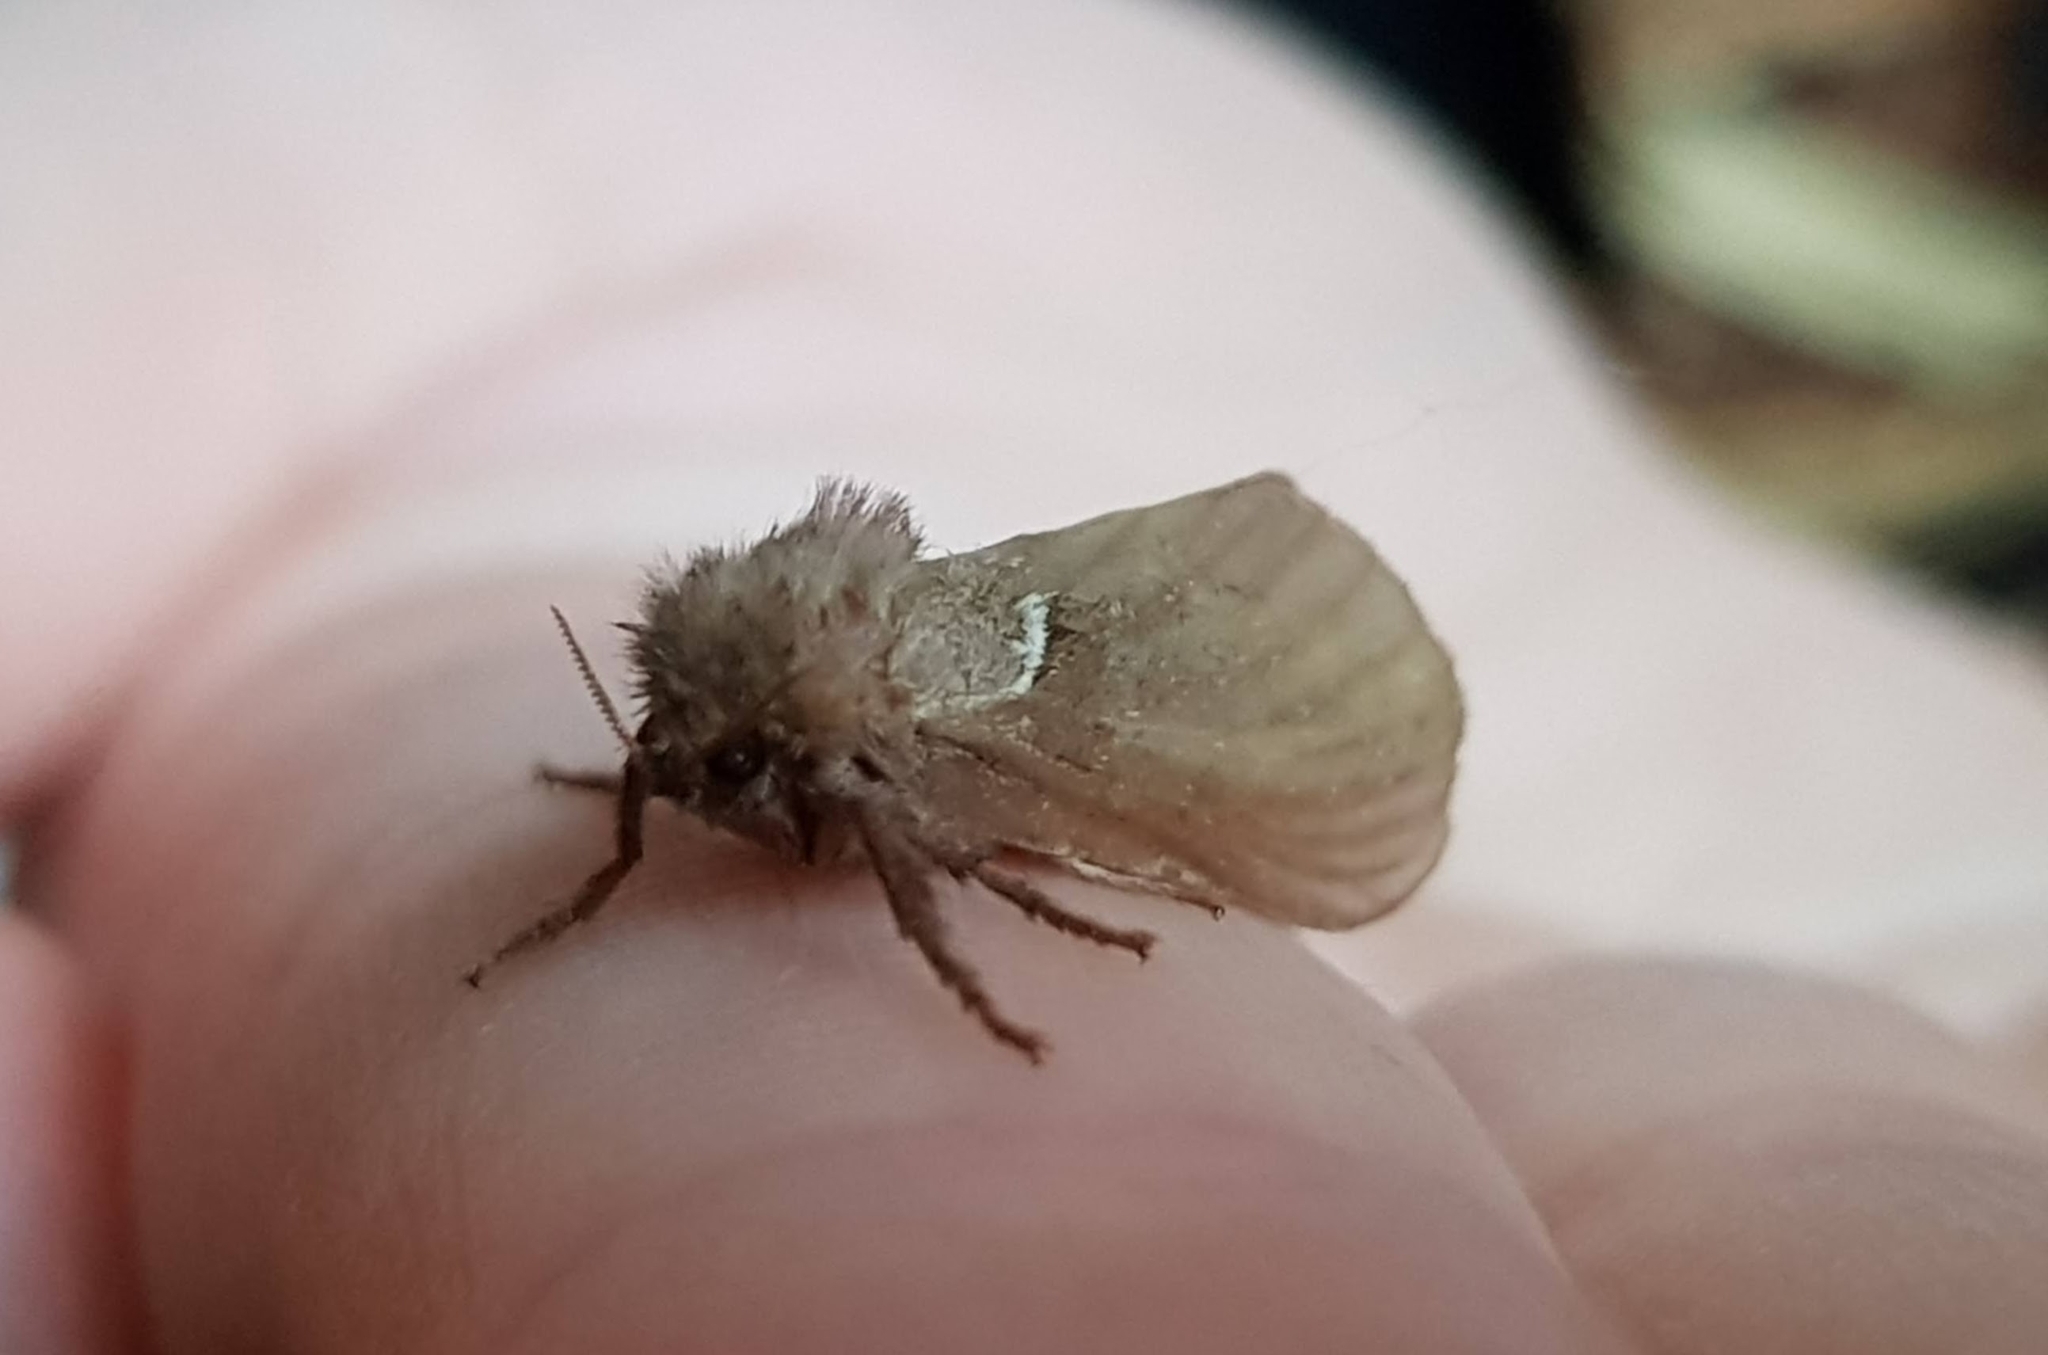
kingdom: Animalia
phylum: Arthropoda
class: Insecta
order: Lepidoptera
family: Hepialidae
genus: Triodia
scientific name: Triodia sylvina
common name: Orange swift
